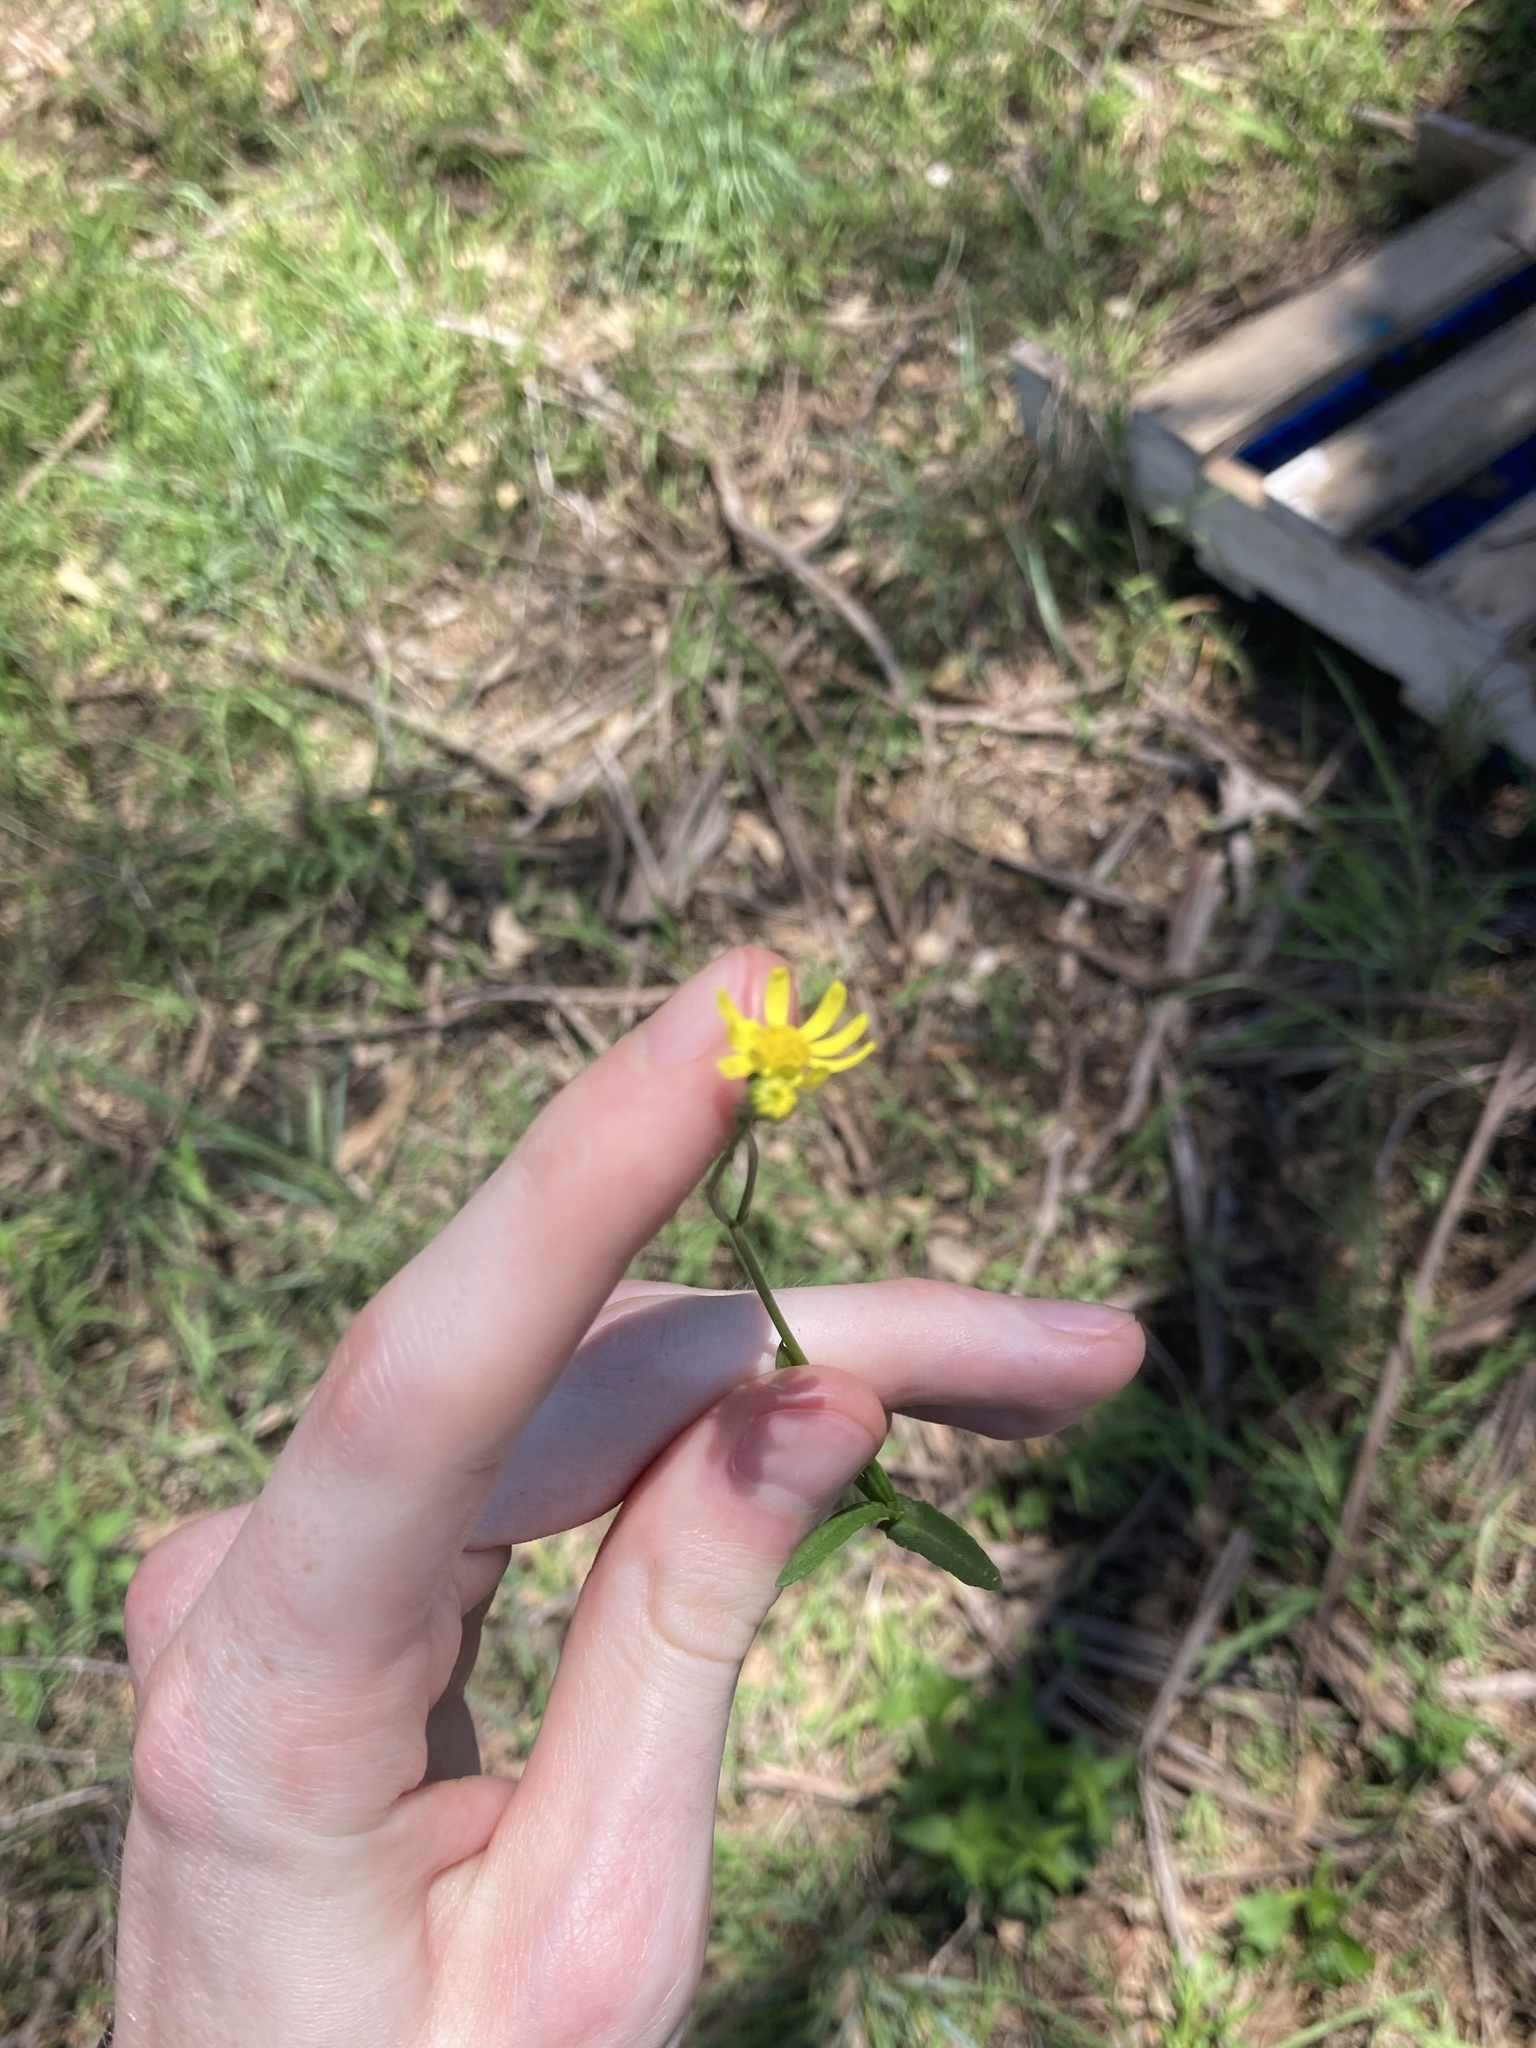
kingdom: Plantae
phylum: Tracheophyta
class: Magnoliopsida
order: Asterales
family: Asteraceae
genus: Senecio
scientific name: Senecio madagascariensis
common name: Madagascar ragwort
